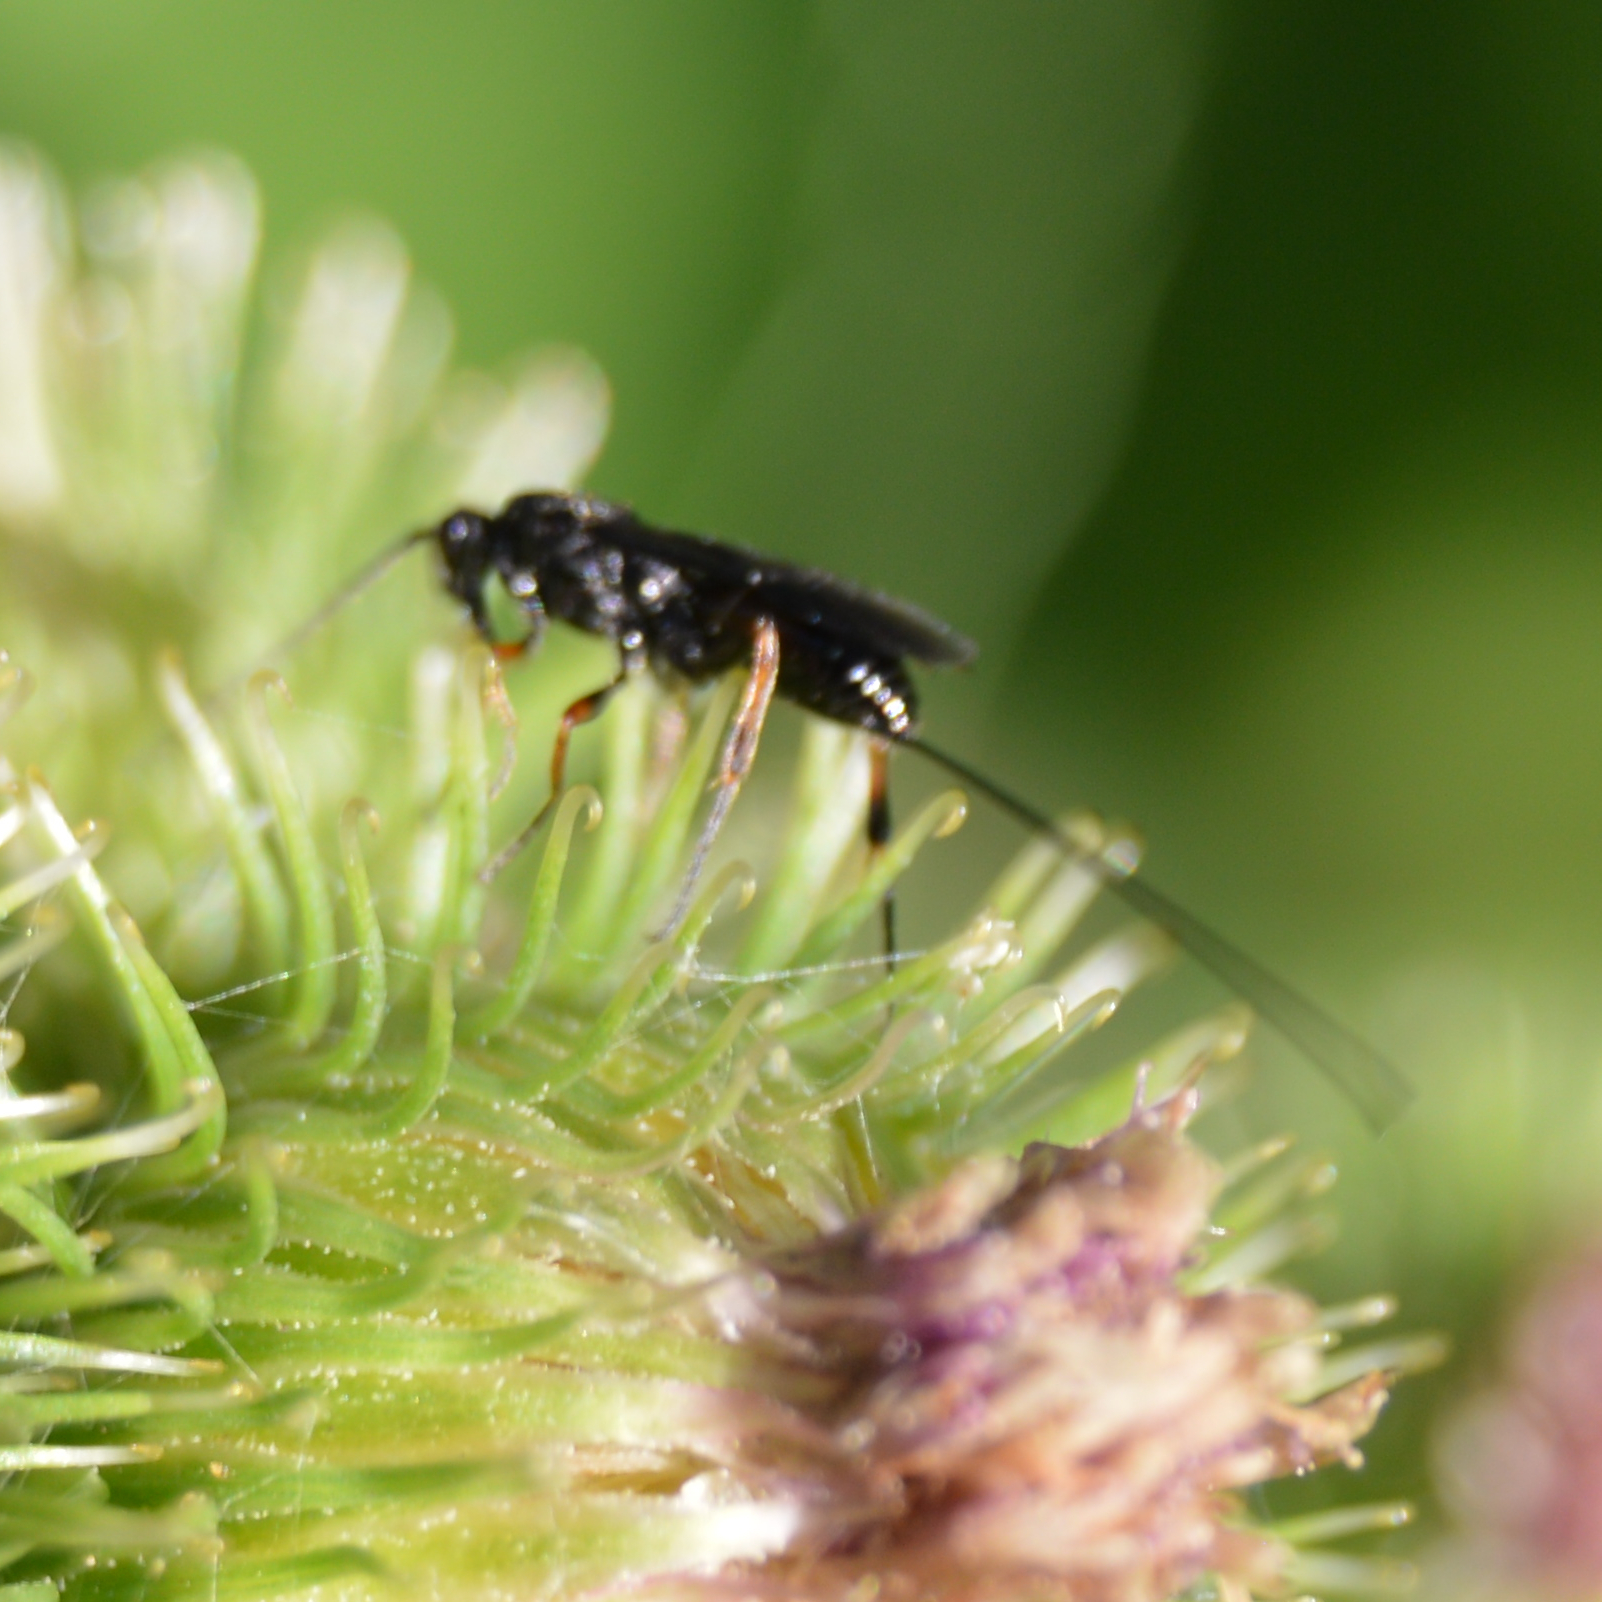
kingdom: Animalia
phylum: Arthropoda
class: Insecta
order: Hymenoptera
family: Braconidae
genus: Agathis
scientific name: Agathis malvacearum
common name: Braconid wasp
